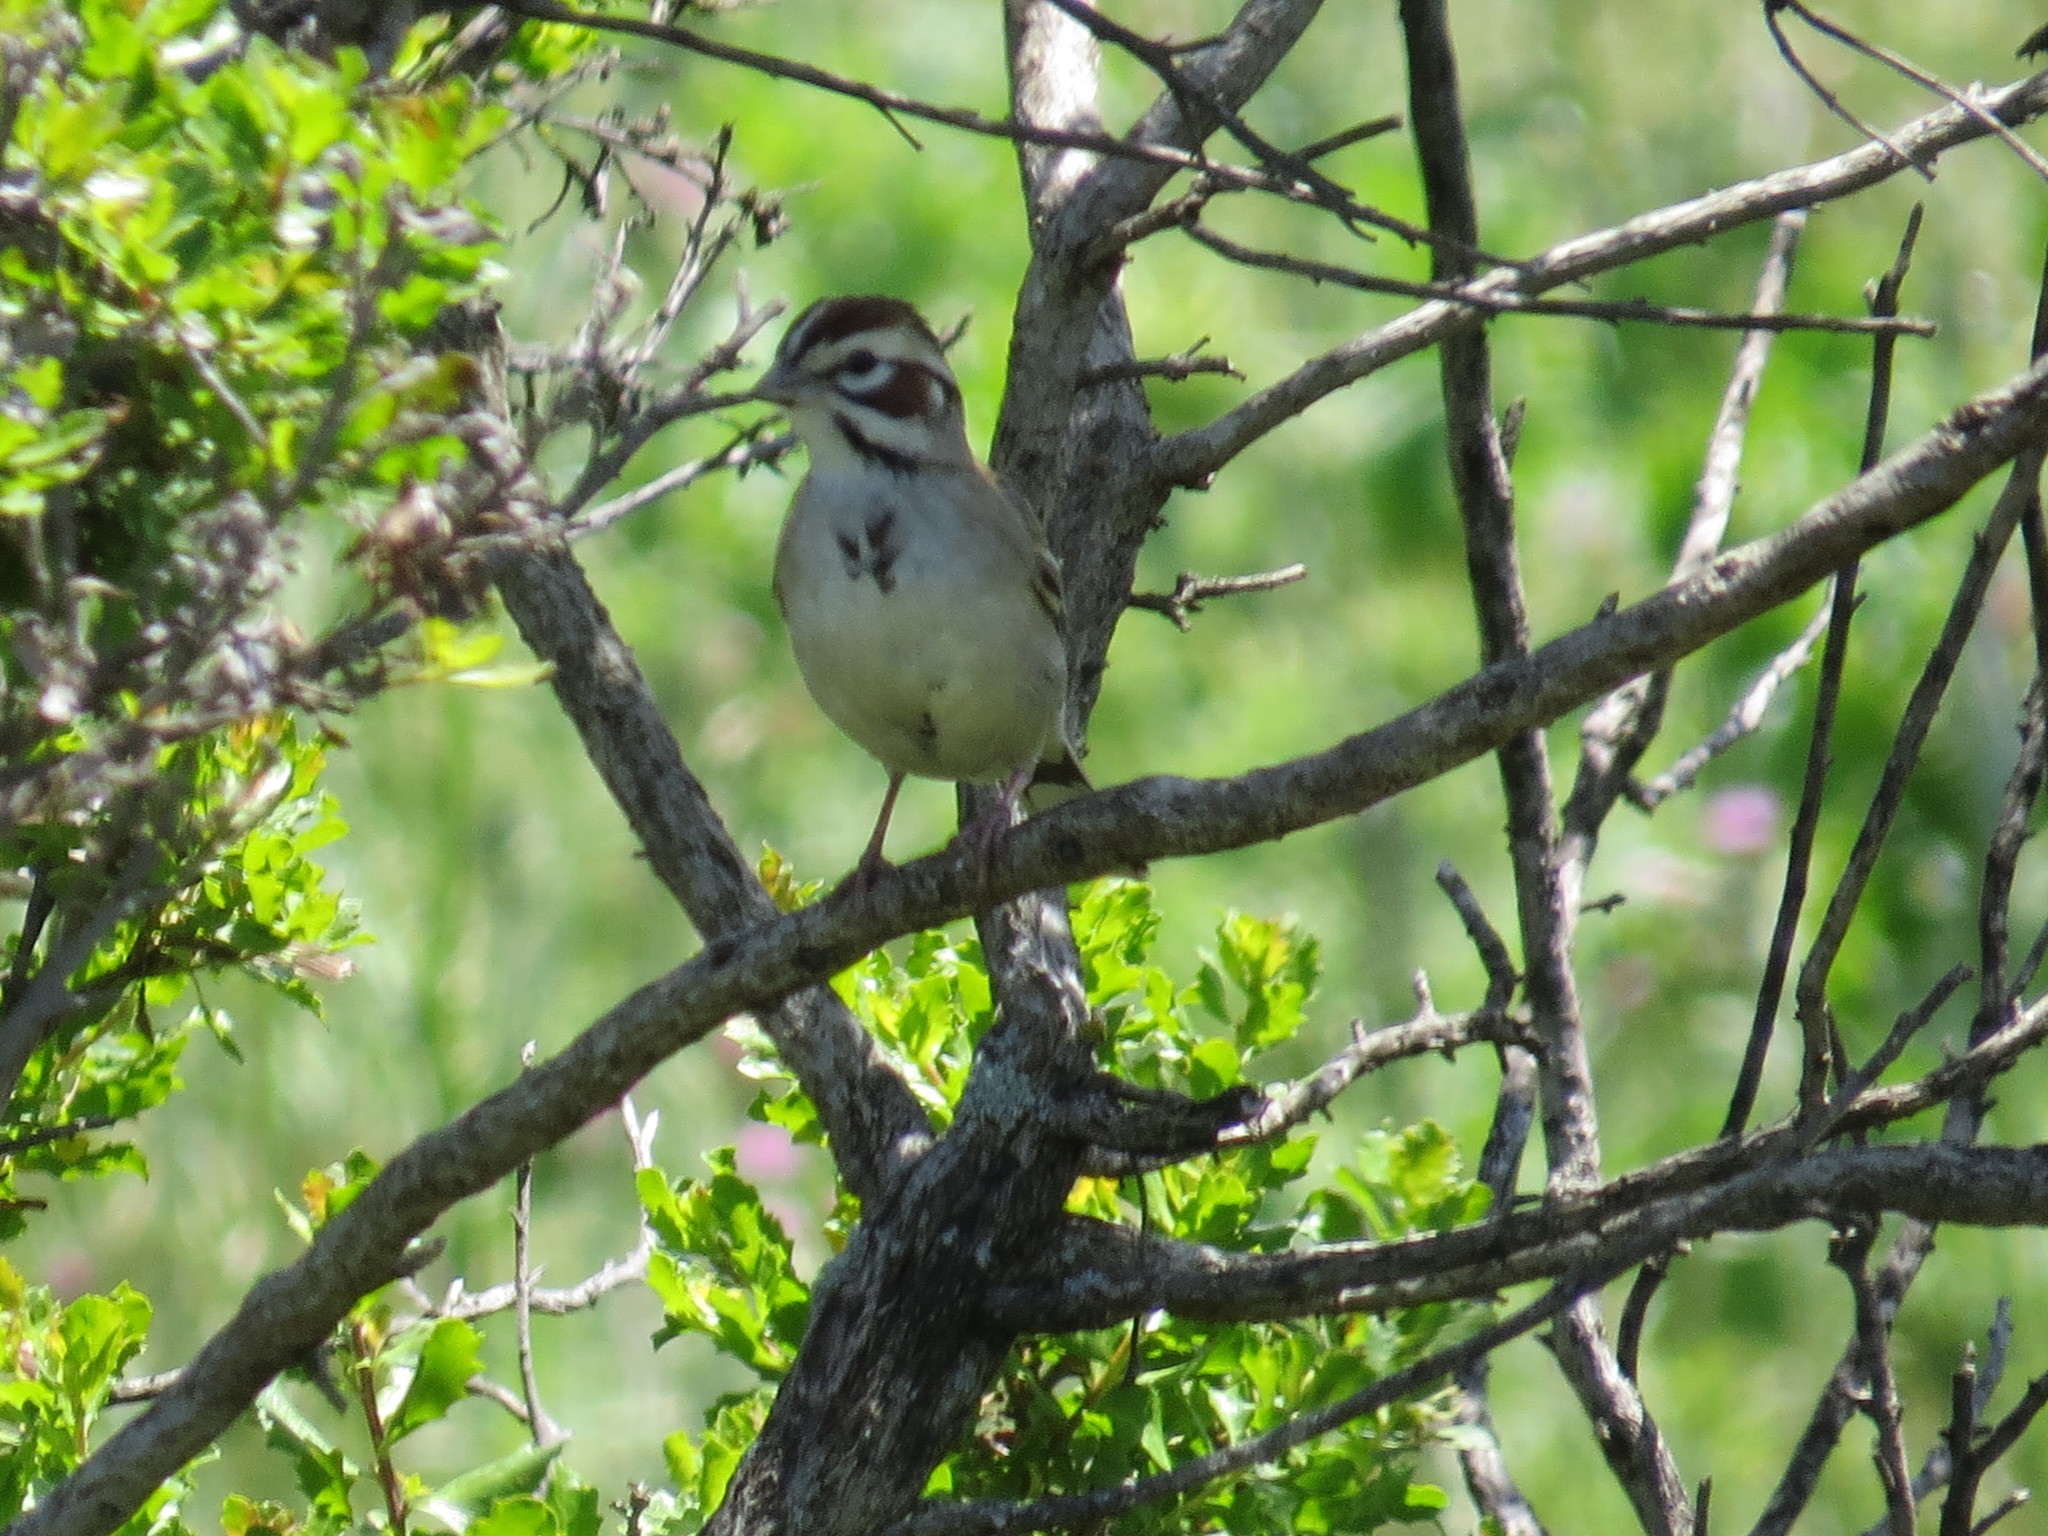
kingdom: Animalia
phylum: Chordata
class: Aves
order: Passeriformes
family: Passerellidae
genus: Chondestes
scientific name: Chondestes grammacus
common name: Lark sparrow
